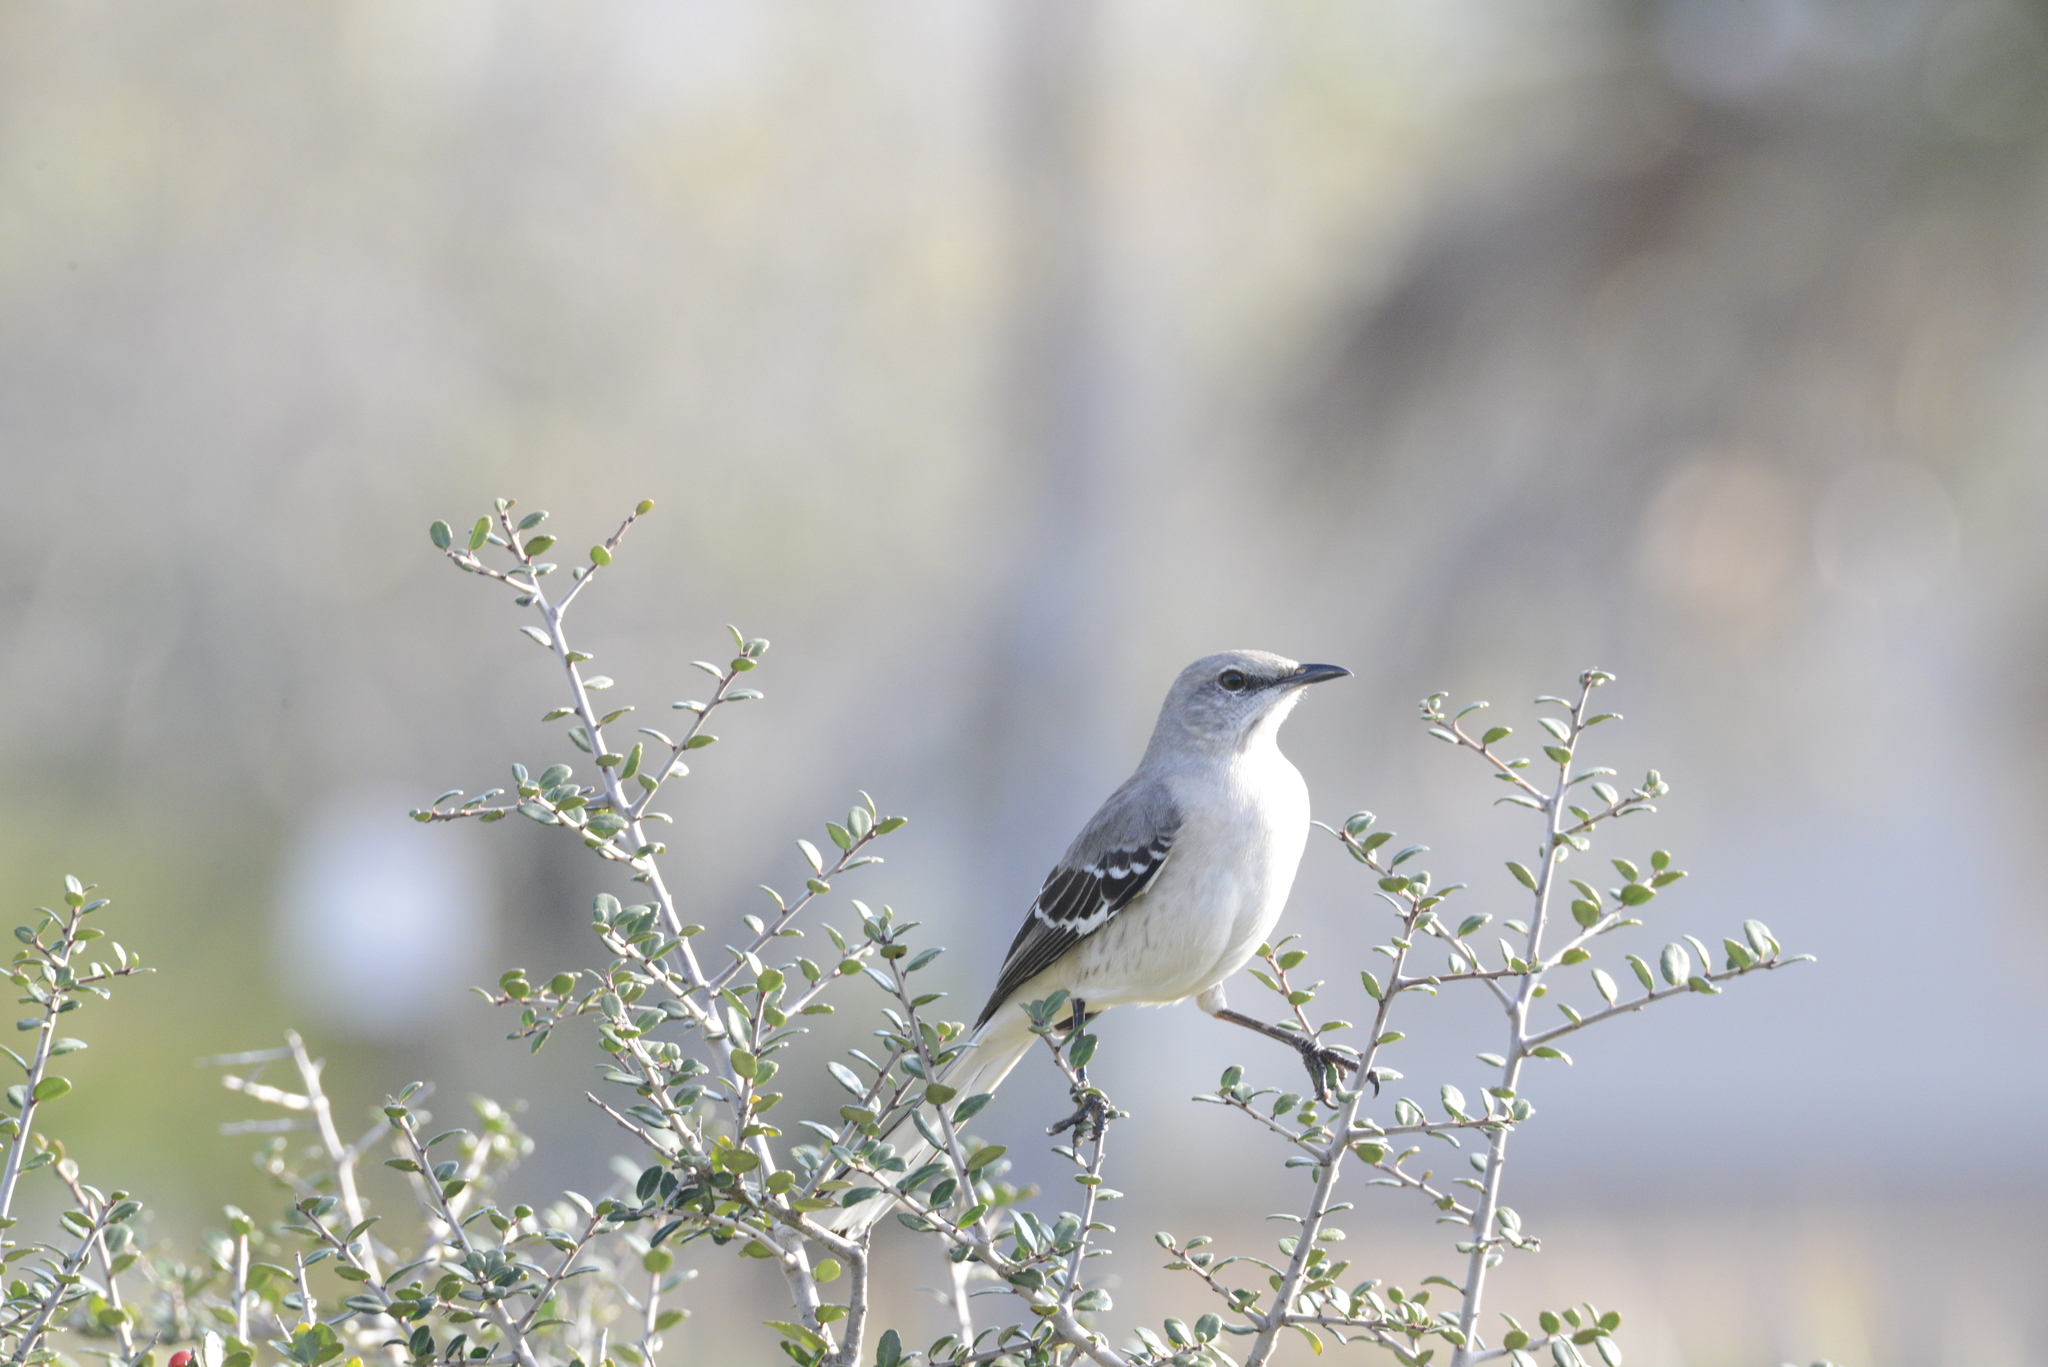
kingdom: Animalia
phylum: Chordata
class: Aves
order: Passeriformes
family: Mimidae
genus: Mimus
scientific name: Mimus polyglottos
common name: Northern mockingbird
